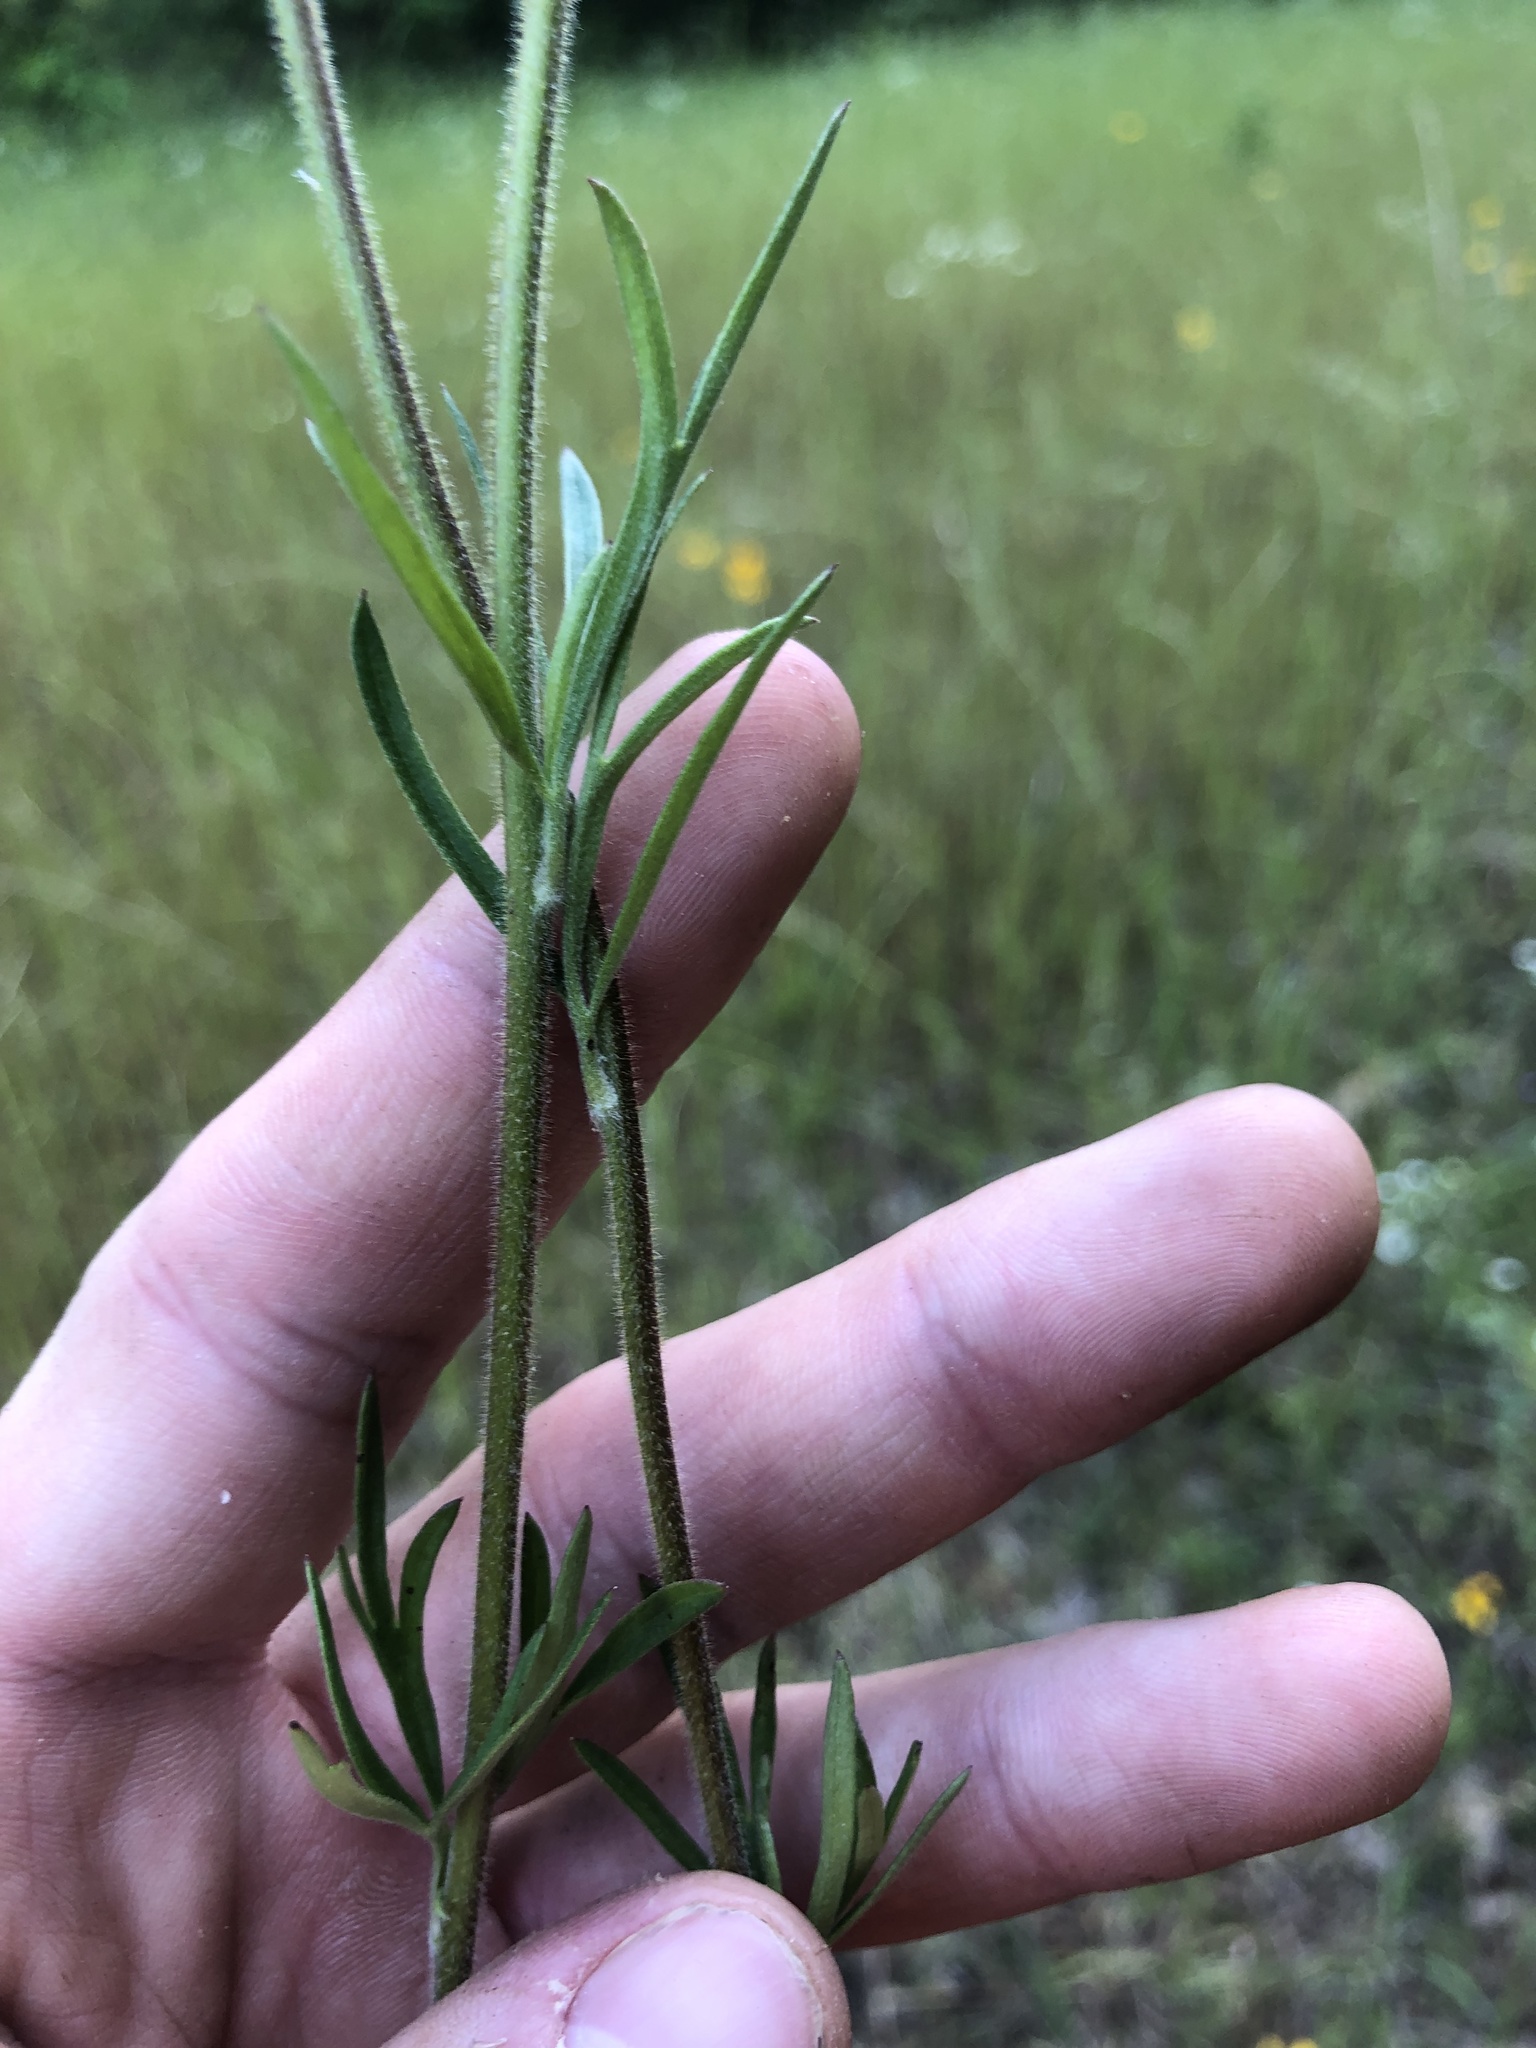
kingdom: Plantae
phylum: Tracheophyta
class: Magnoliopsida
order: Ranunculales
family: Ranunculaceae
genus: Delphinium
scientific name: Delphinium carolinianum
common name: Carolina larkspur
